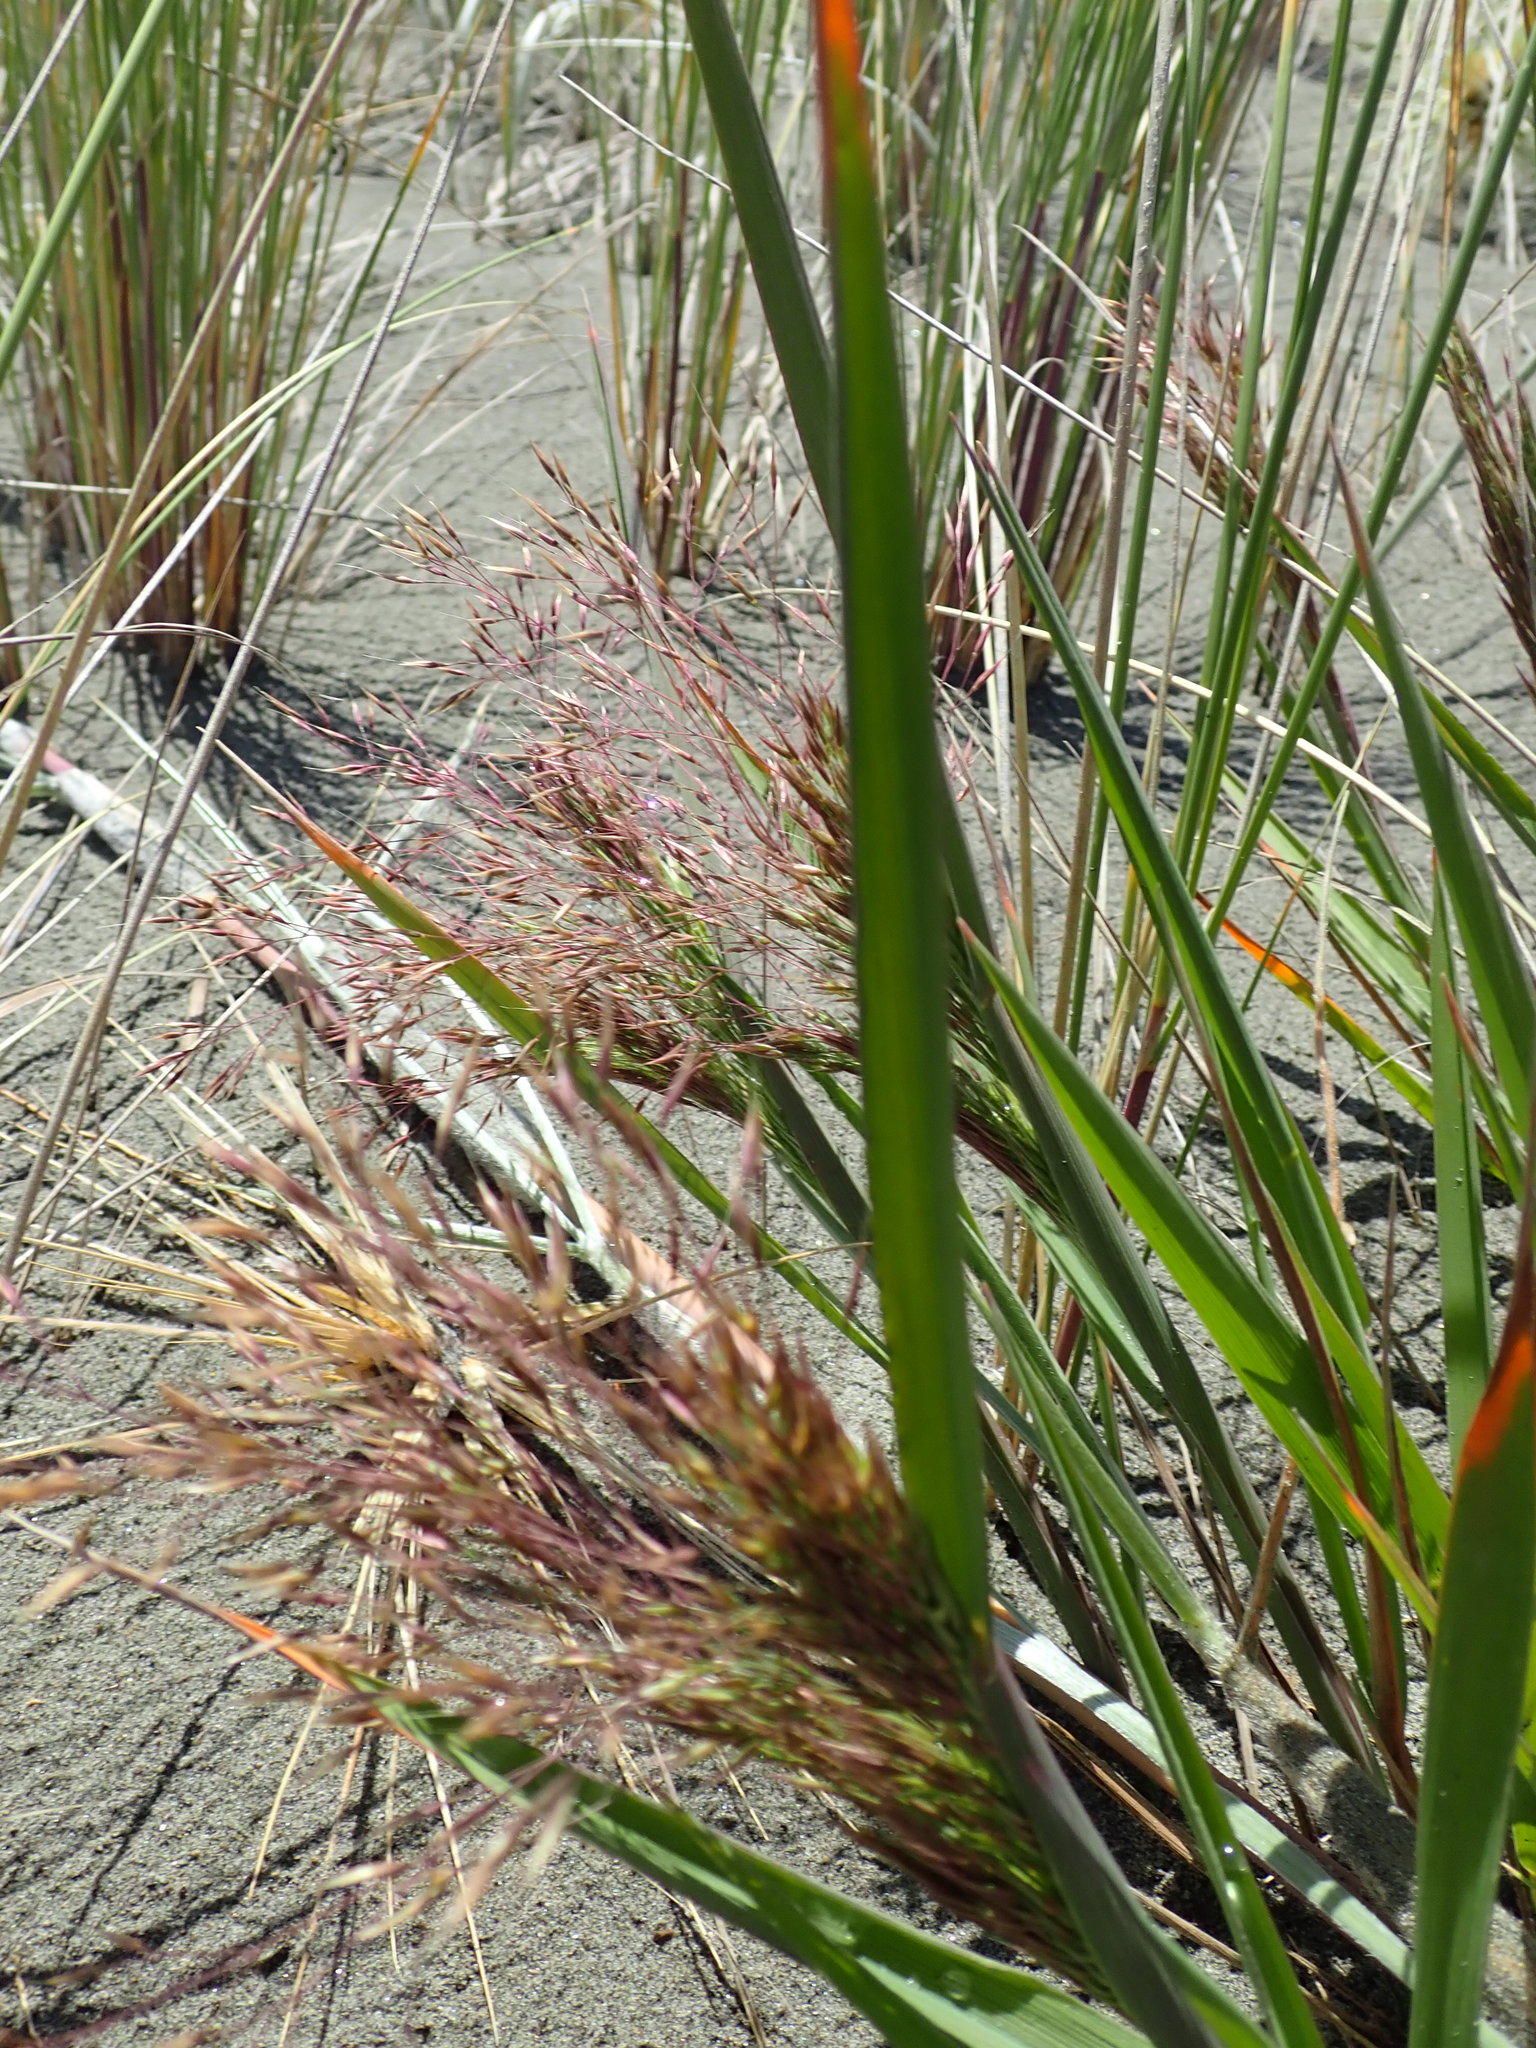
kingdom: Plantae
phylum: Tracheophyta
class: Liliopsida
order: Poales
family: Poaceae
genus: Lachnagrostis
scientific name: Lachnagrostis billardierei
